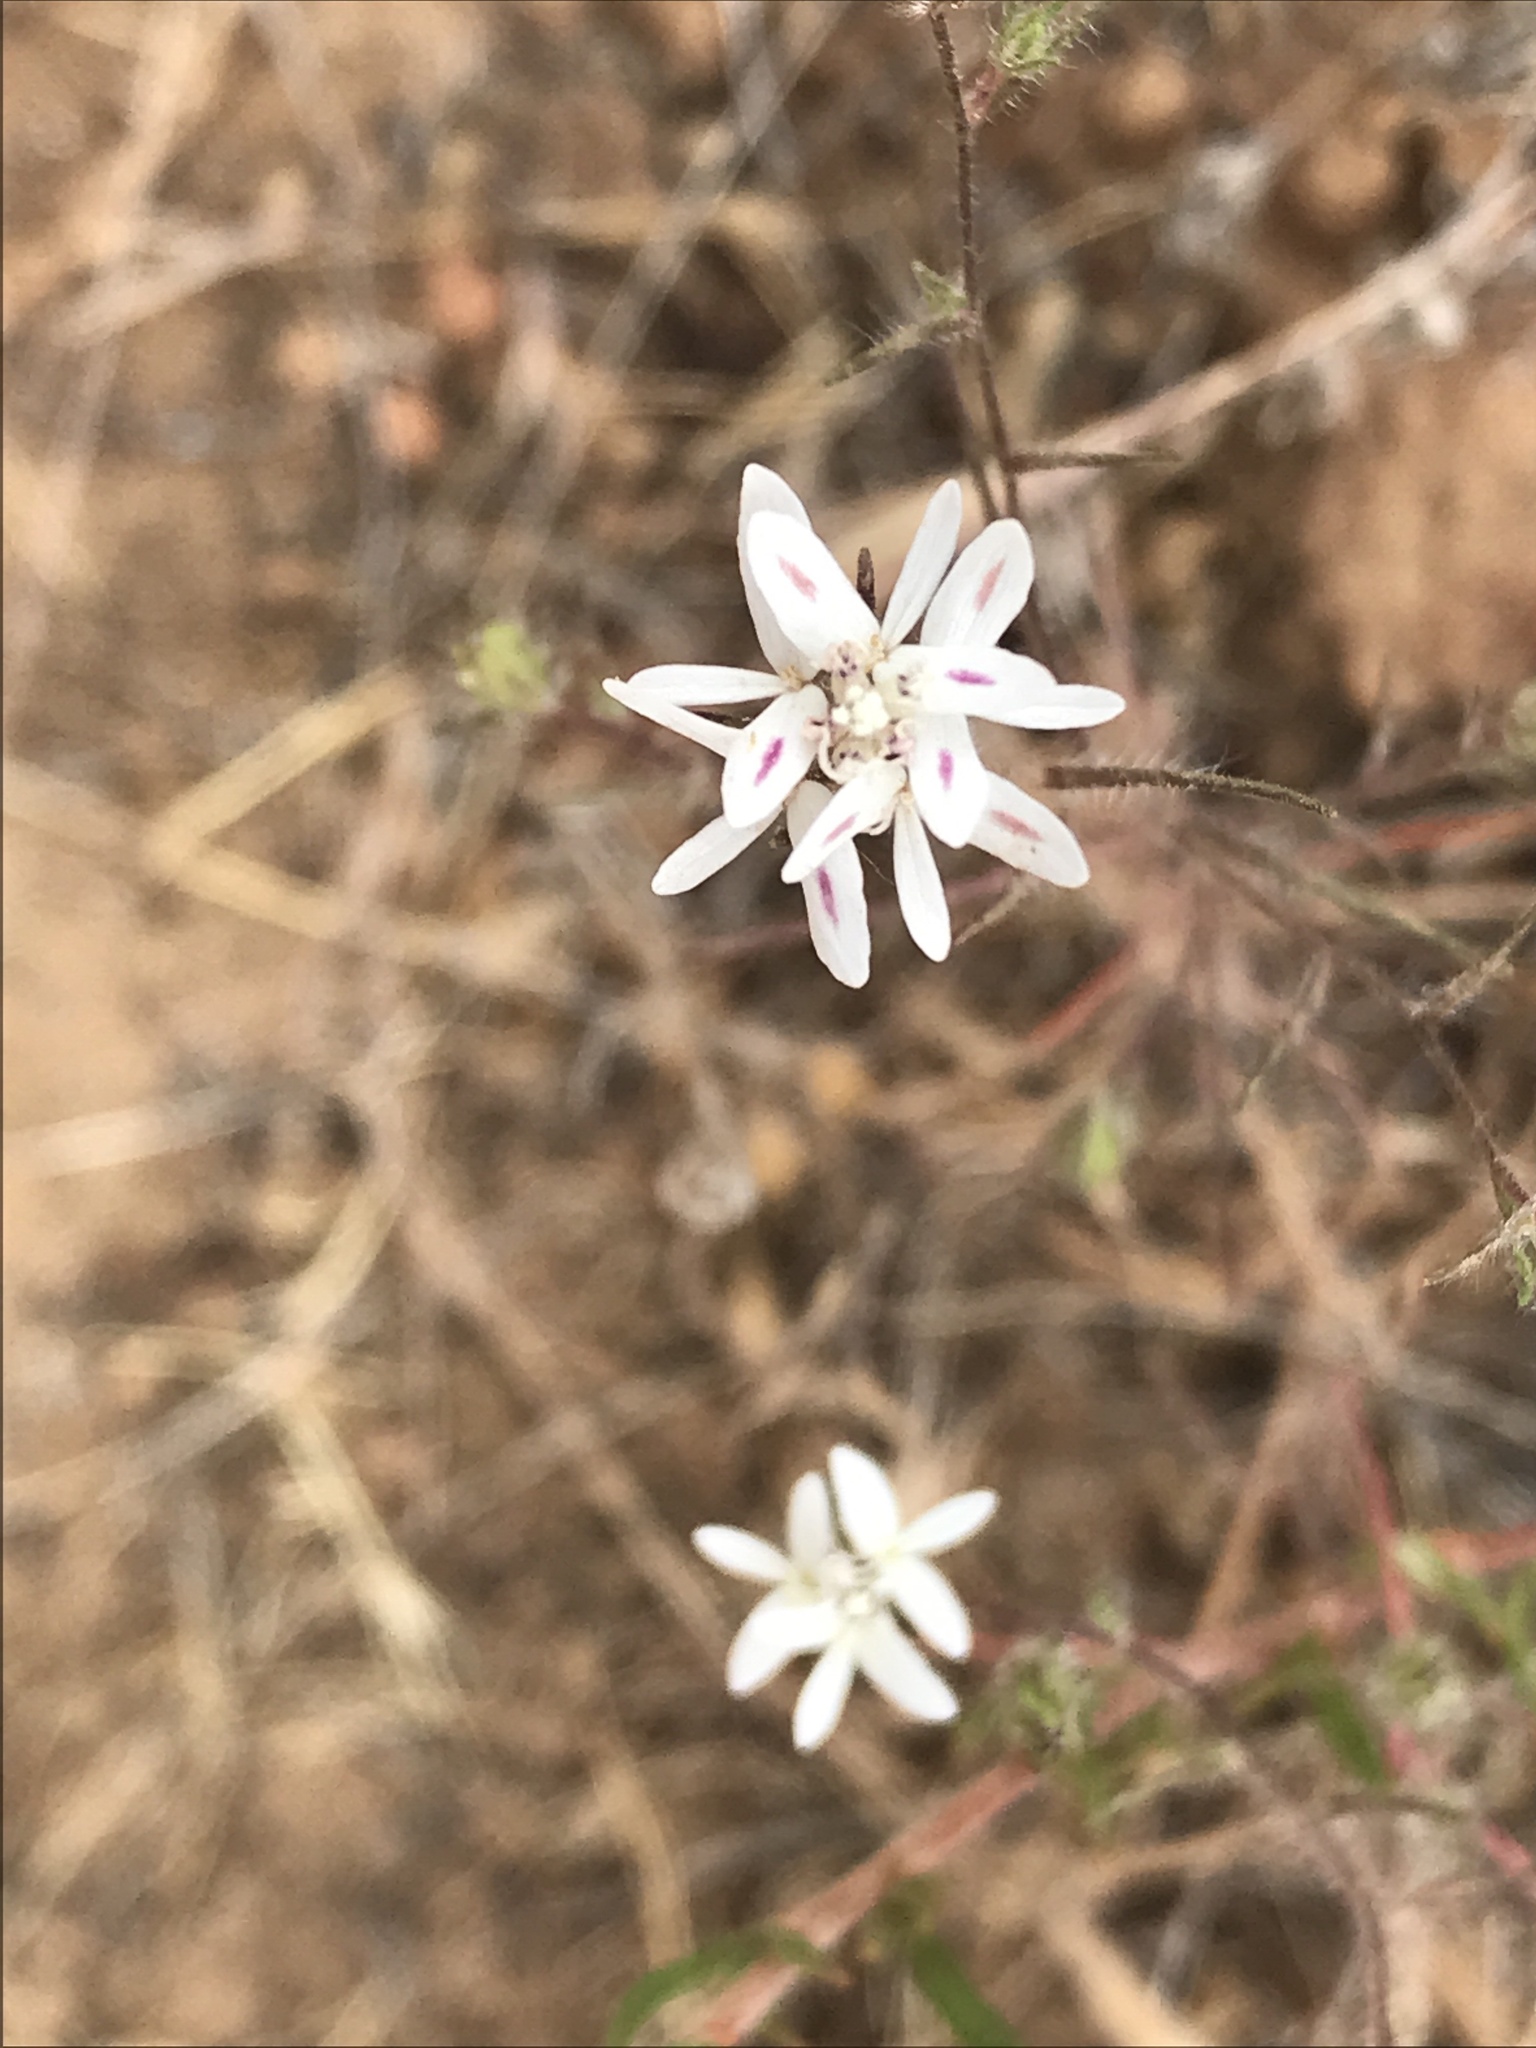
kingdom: Plantae
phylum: Tracheophyta
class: Magnoliopsida
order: Asterales
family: Asteraceae
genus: Osmadenia
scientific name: Osmadenia tenella
